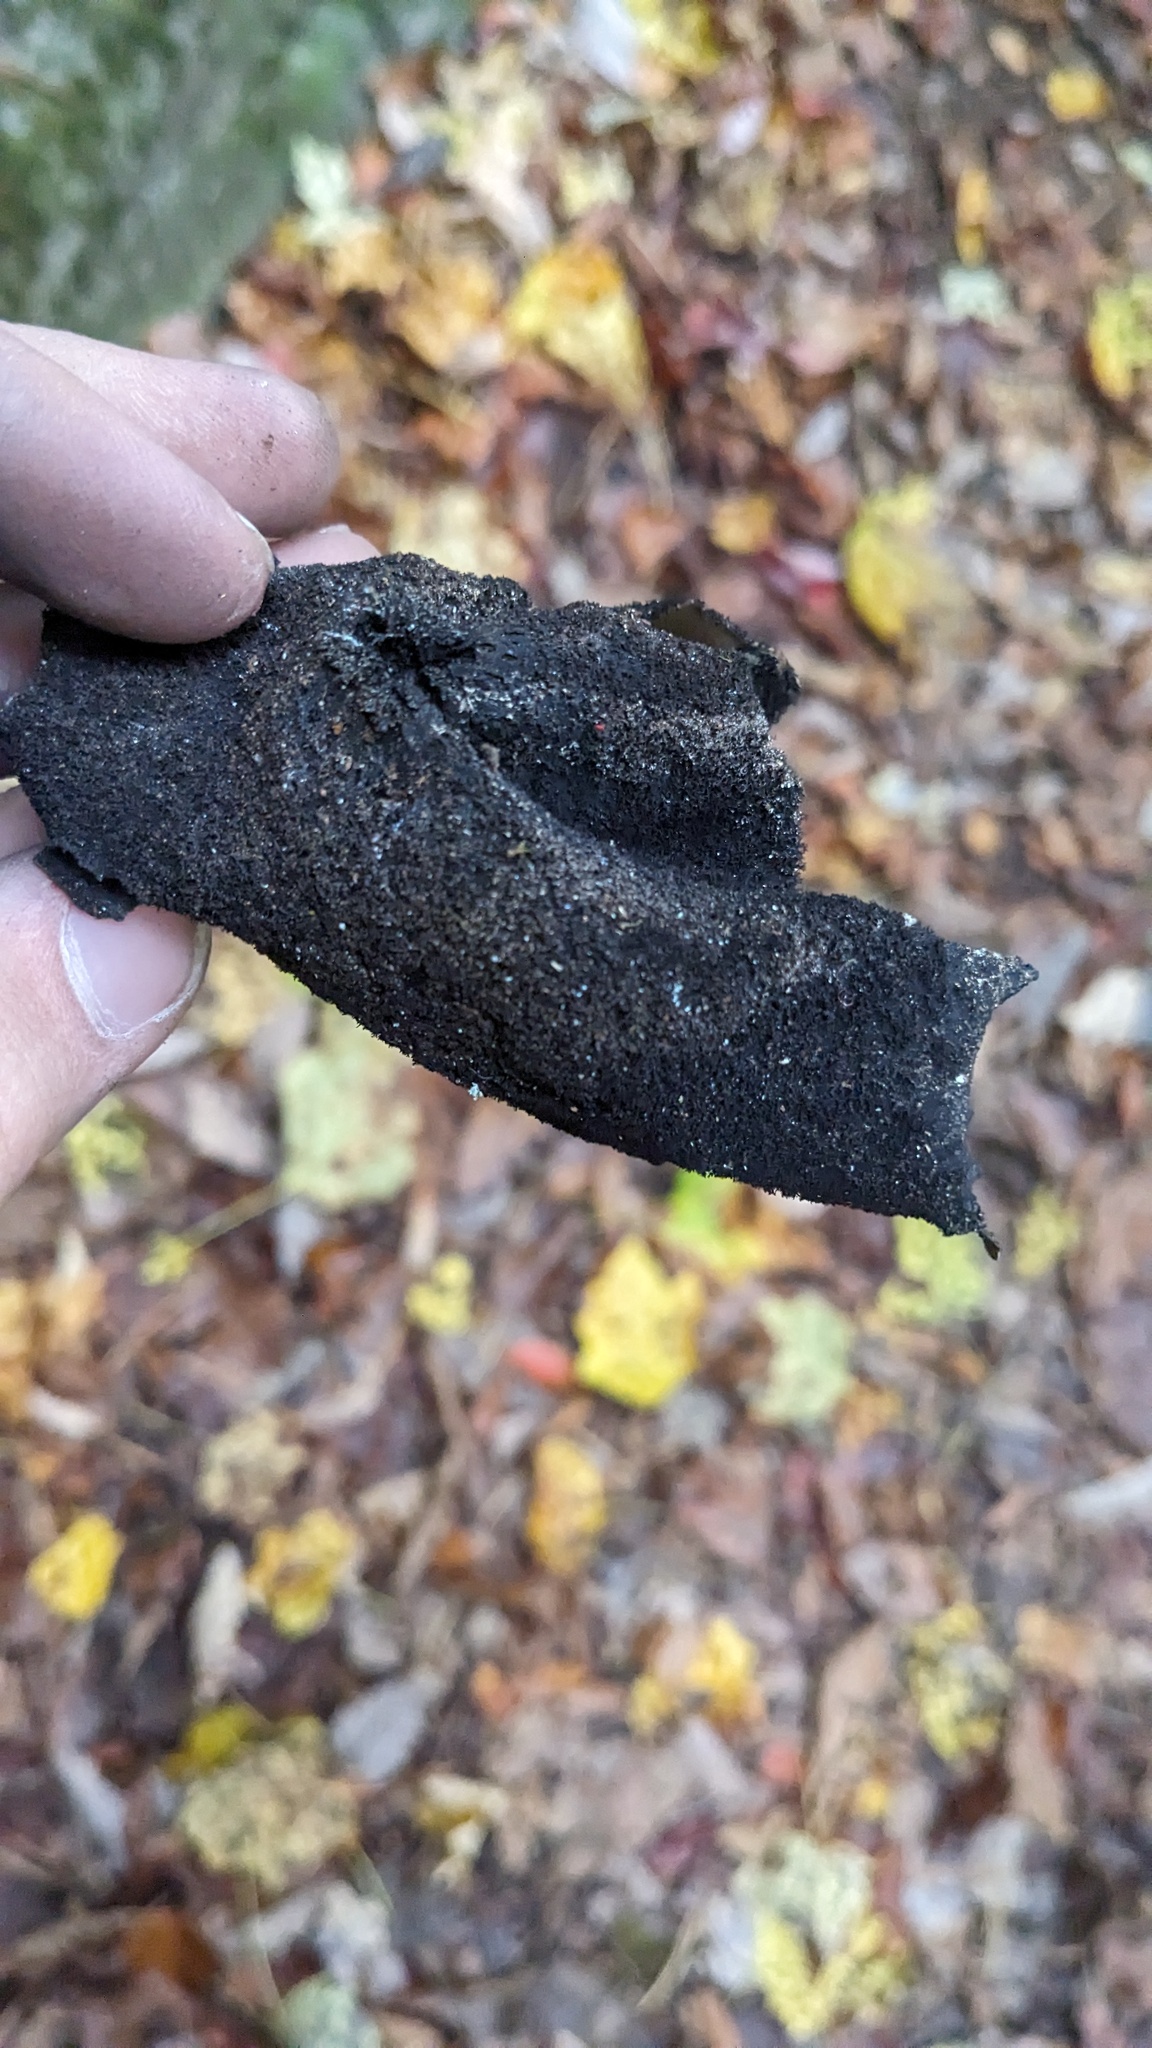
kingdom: Fungi
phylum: Ascomycota
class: Lecanoromycetes
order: Umbilicariales
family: Umbilicariaceae
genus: Umbilicaria
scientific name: Umbilicaria mammulata
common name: Smooth rock tripe
